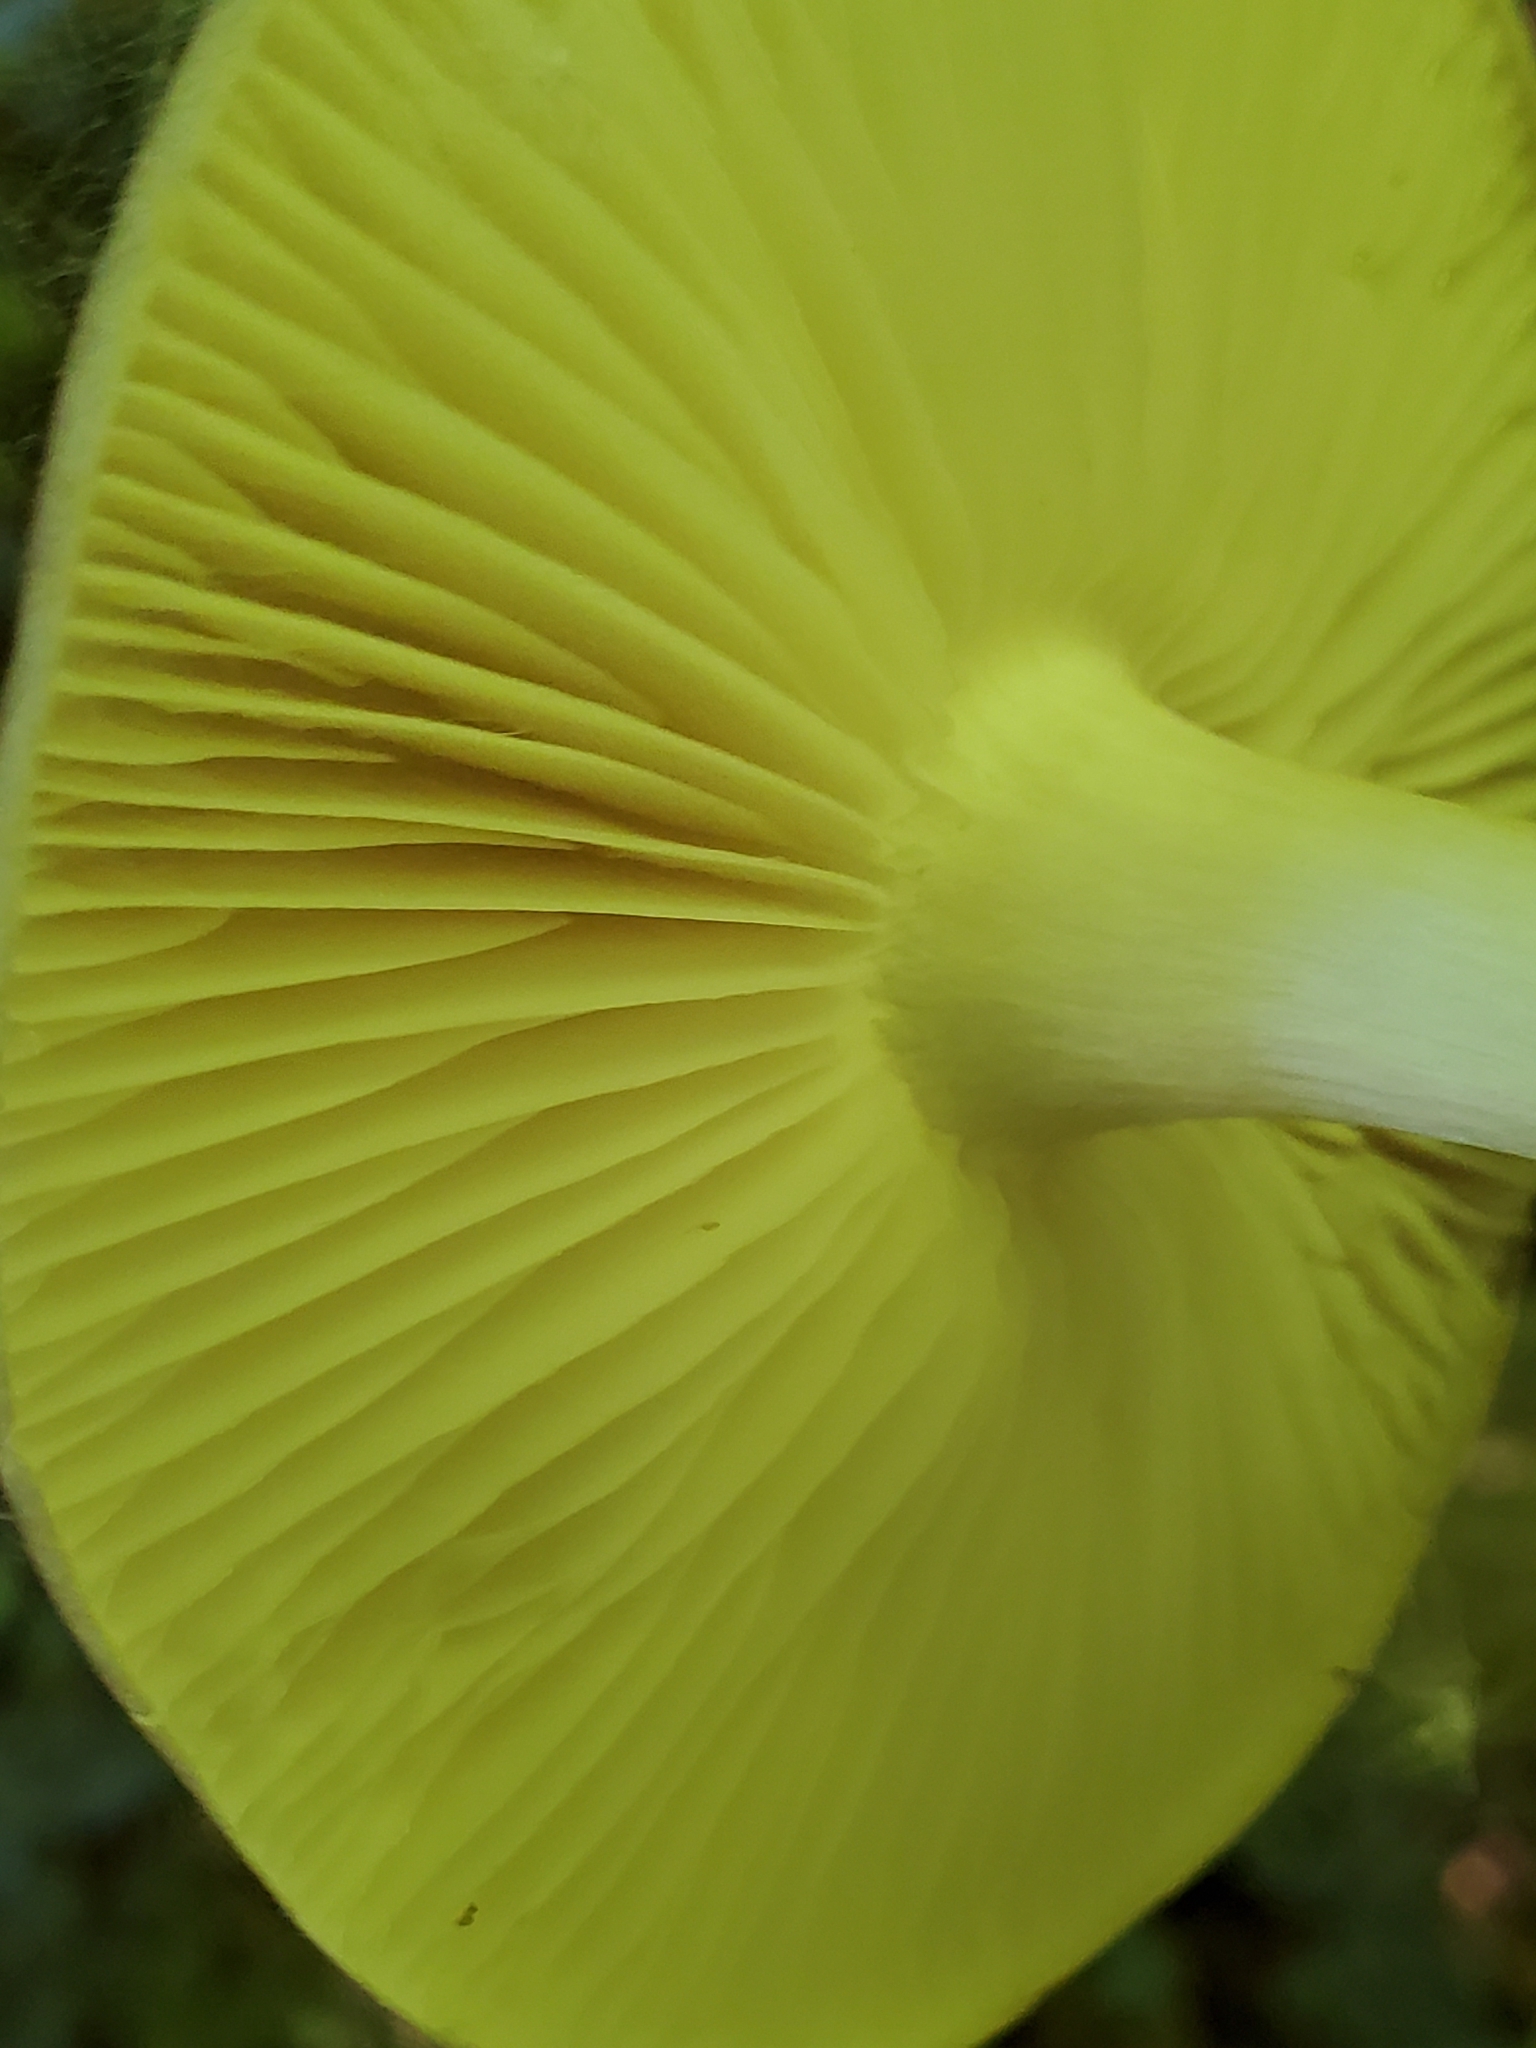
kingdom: Fungi
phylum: Basidiomycota
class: Agaricomycetes
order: Agaricales
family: Tricholomataceae
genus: Megacollybia
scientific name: Megacollybia rodmanii
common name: Eastern american platterful mushroom
